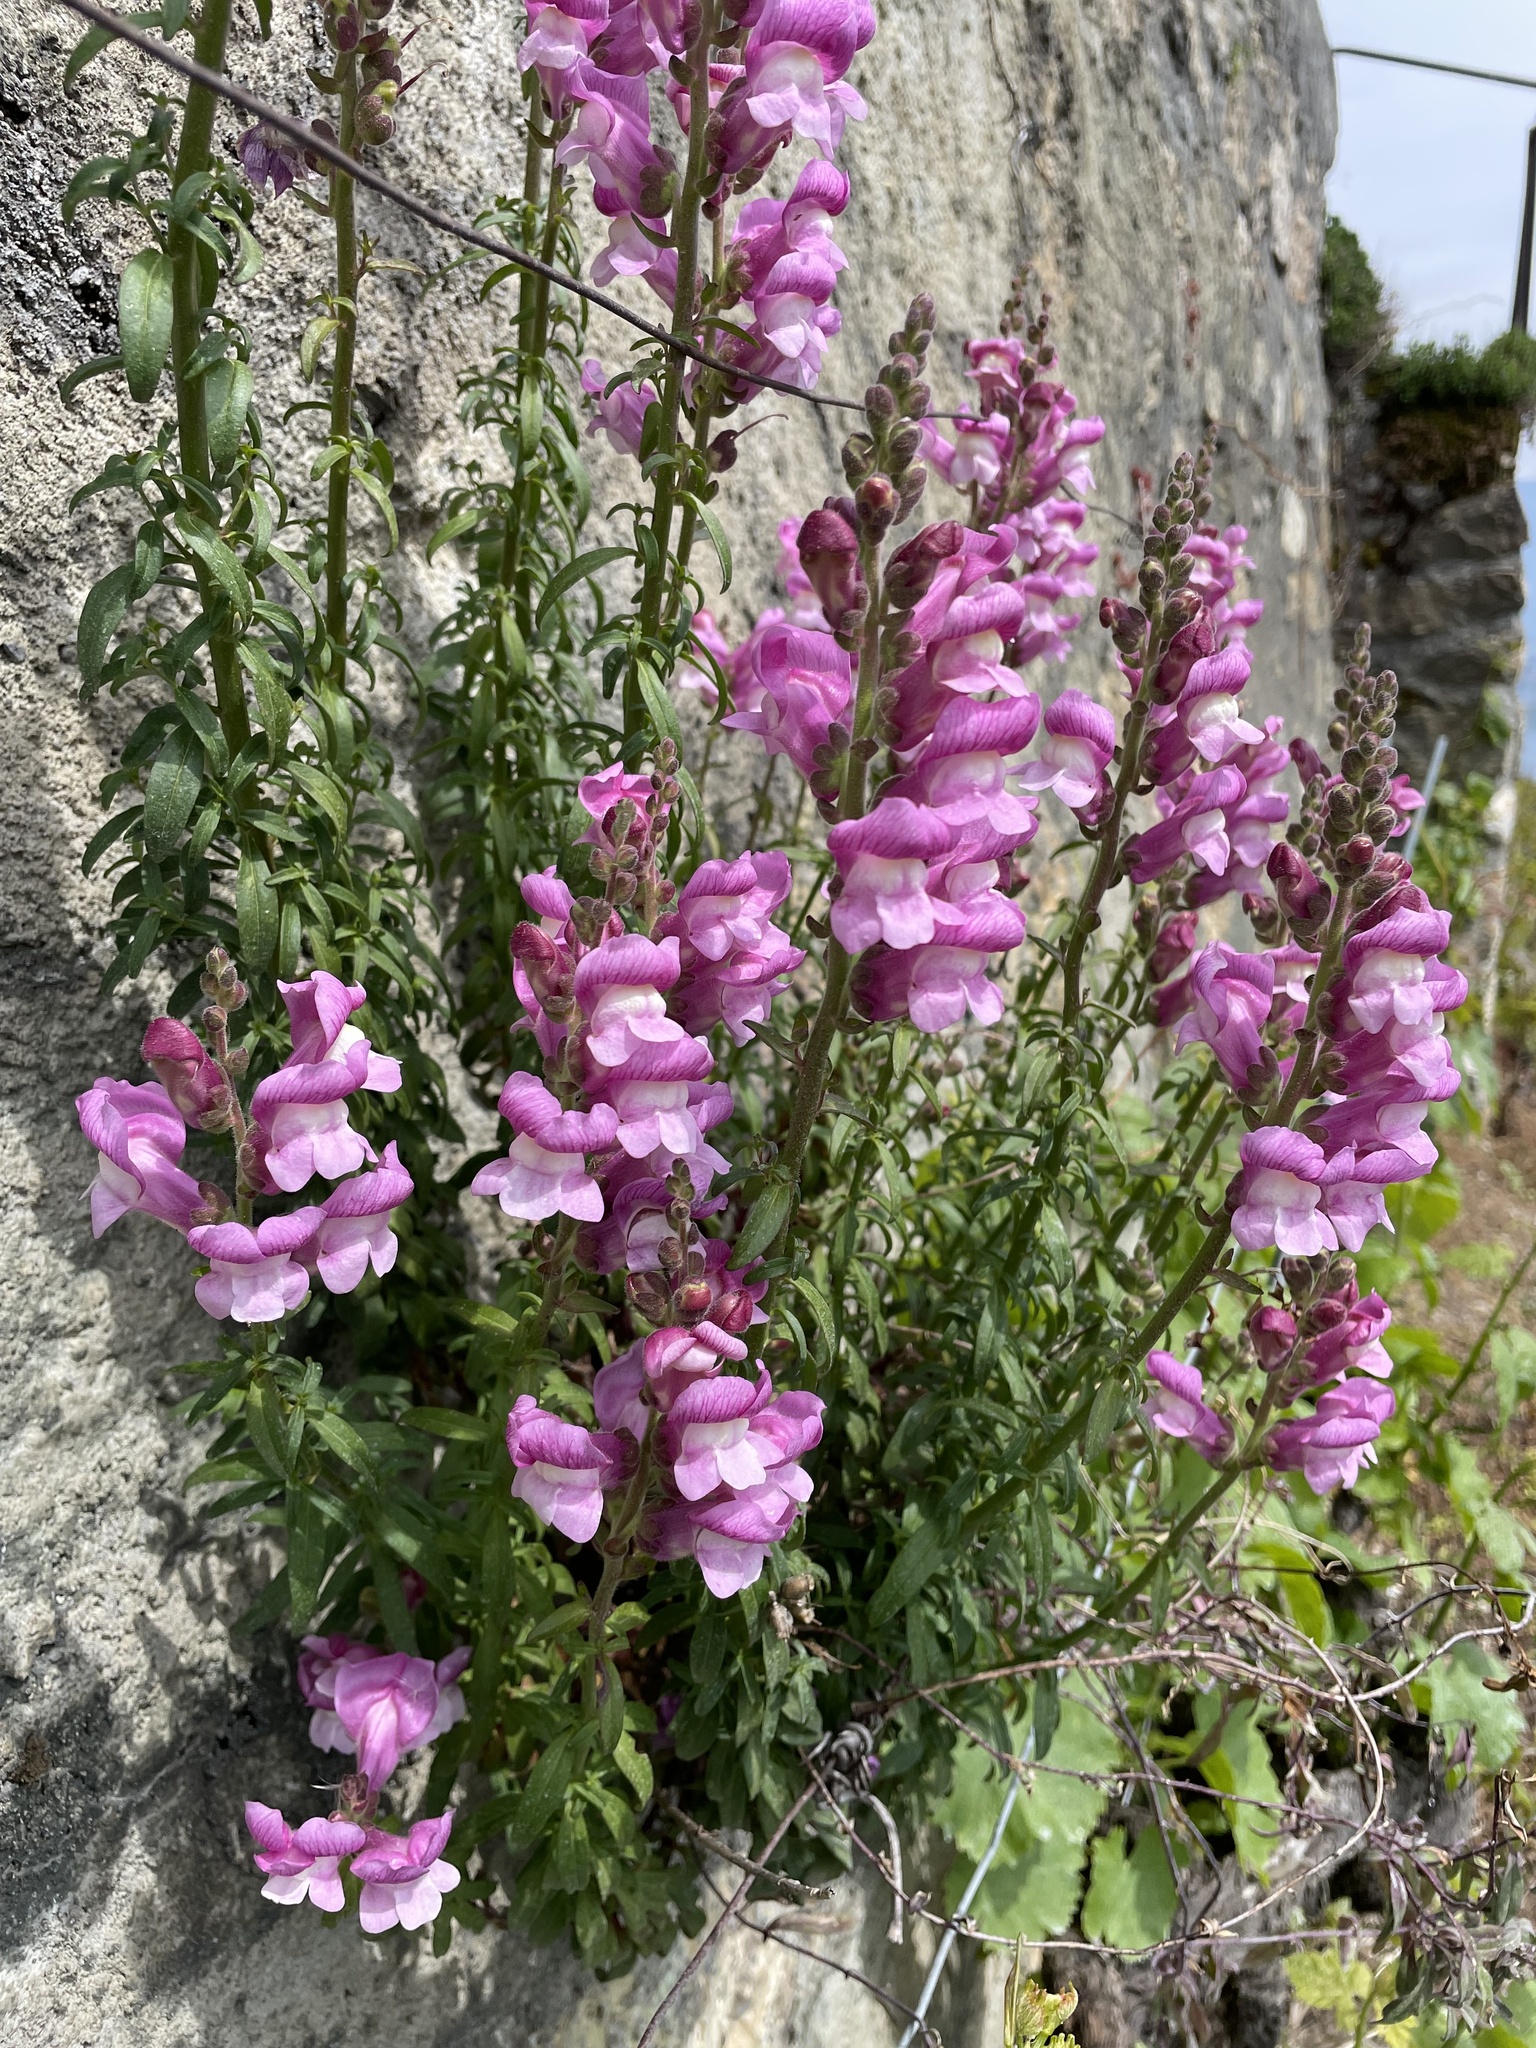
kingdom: Plantae
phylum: Tracheophyta
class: Magnoliopsida
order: Lamiales
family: Plantaginaceae
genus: Antirrhinum
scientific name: Antirrhinum majus
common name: Snapdragon
